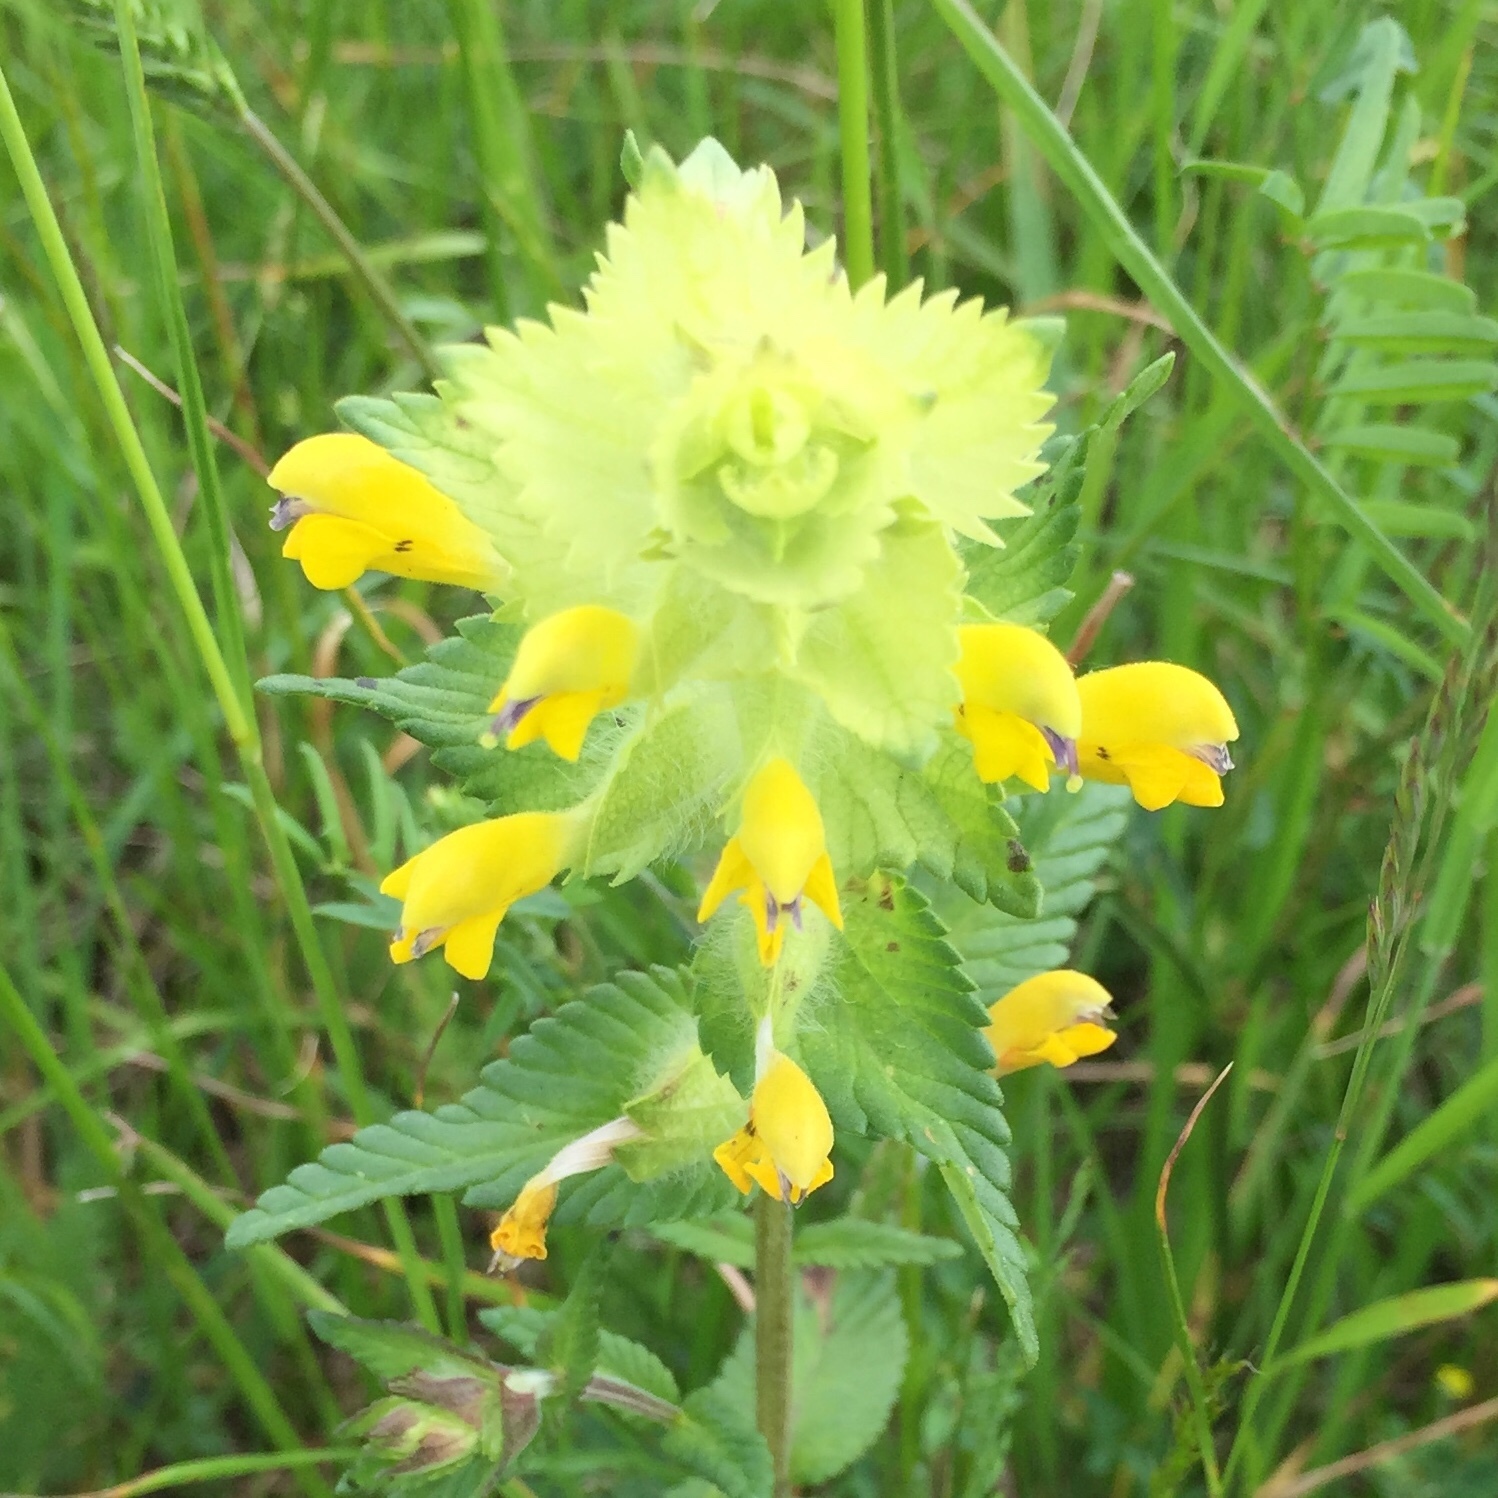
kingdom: Plantae
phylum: Tracheophyta
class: Magnoliopsida
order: Lamiales
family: Orobanchaceae
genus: Rhinanthus
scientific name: Rhinanthus alectorolophus
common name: Greater yellow-rattle
